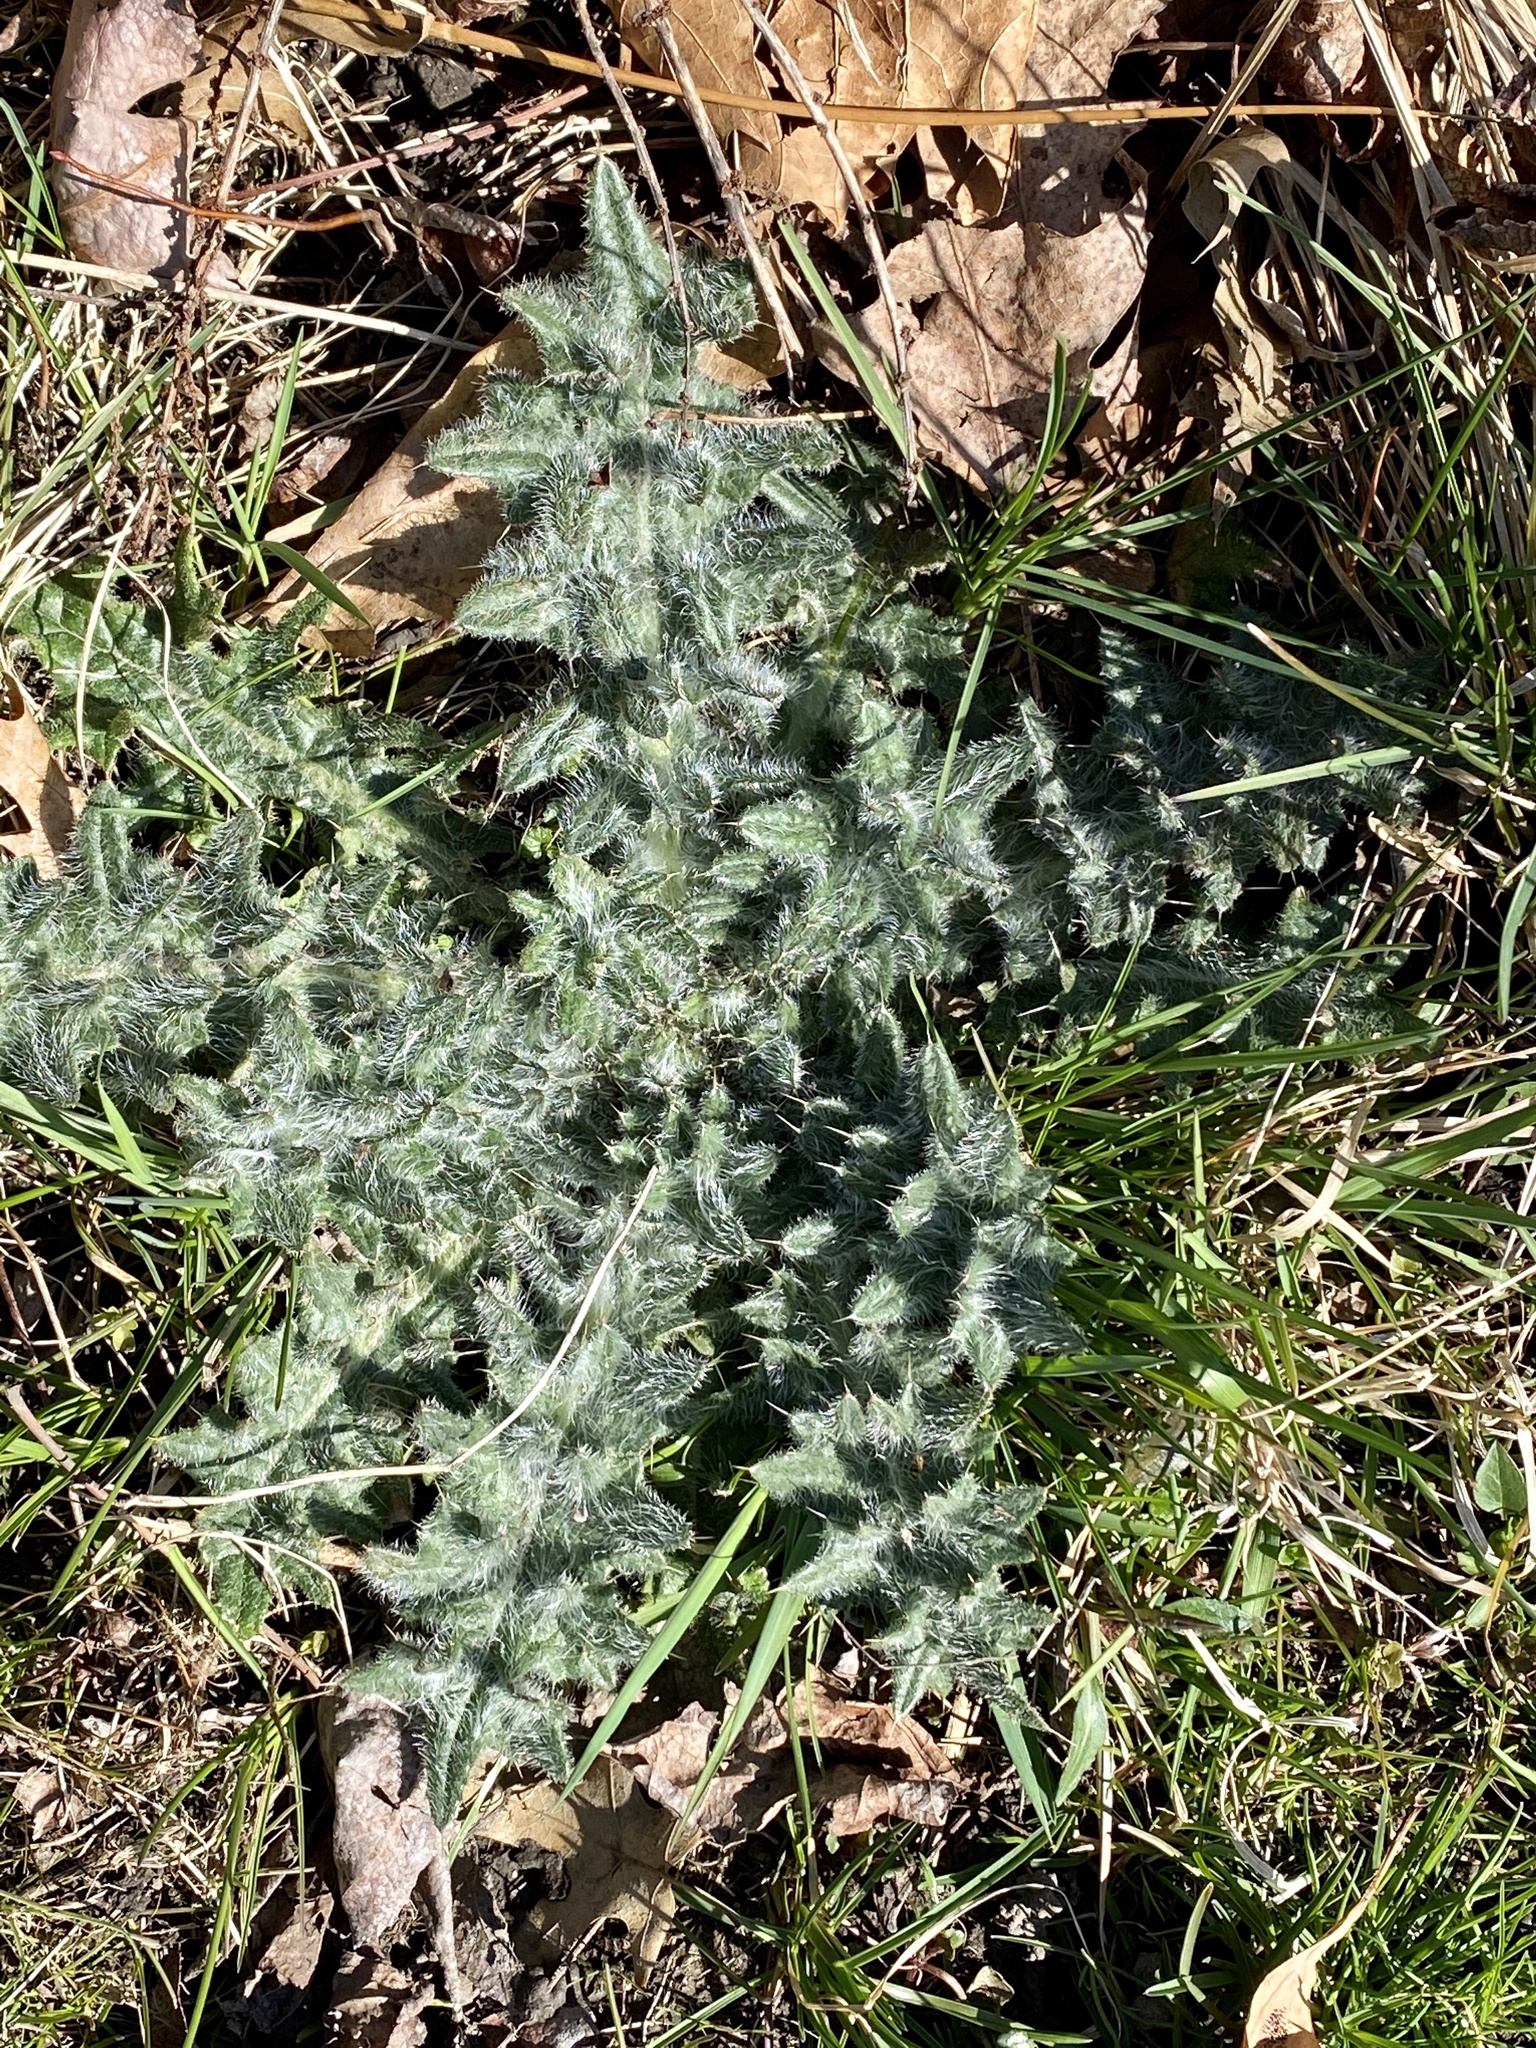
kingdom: Plantae
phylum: Tracheophyta
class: Magnoliopsida
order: Asterales
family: Asteraceae
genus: Cirsium
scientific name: Cirsium vulgare
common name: Bull thistle
